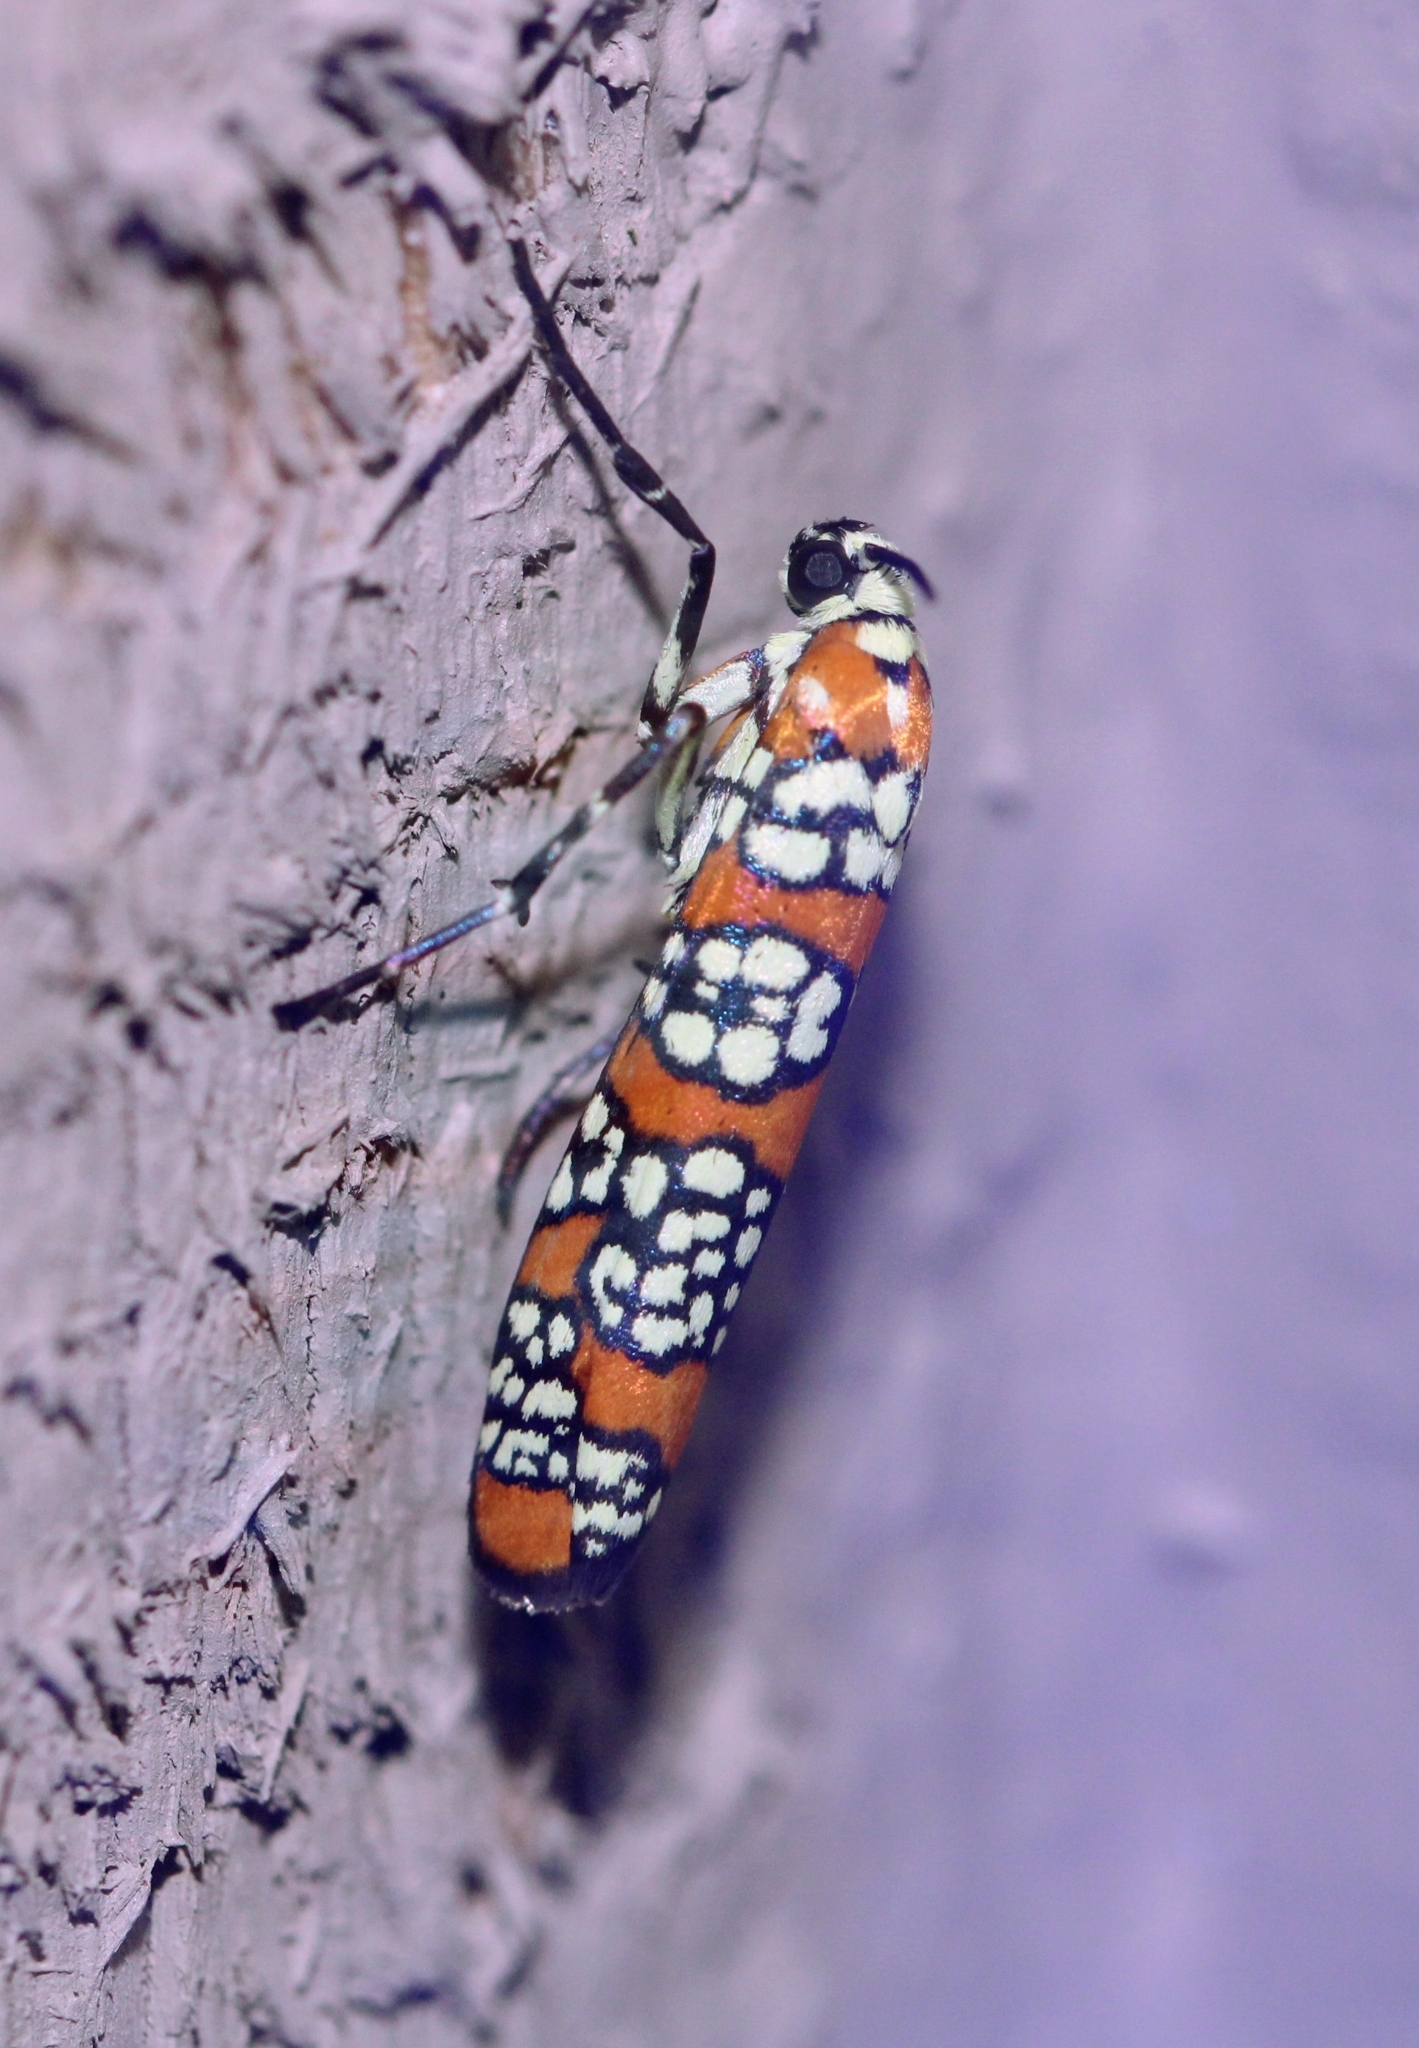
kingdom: Animalia
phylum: Arthropoda
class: Insecta
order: Lepidoptera
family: Attevidae
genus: Atteva
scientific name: Atteva punctella
